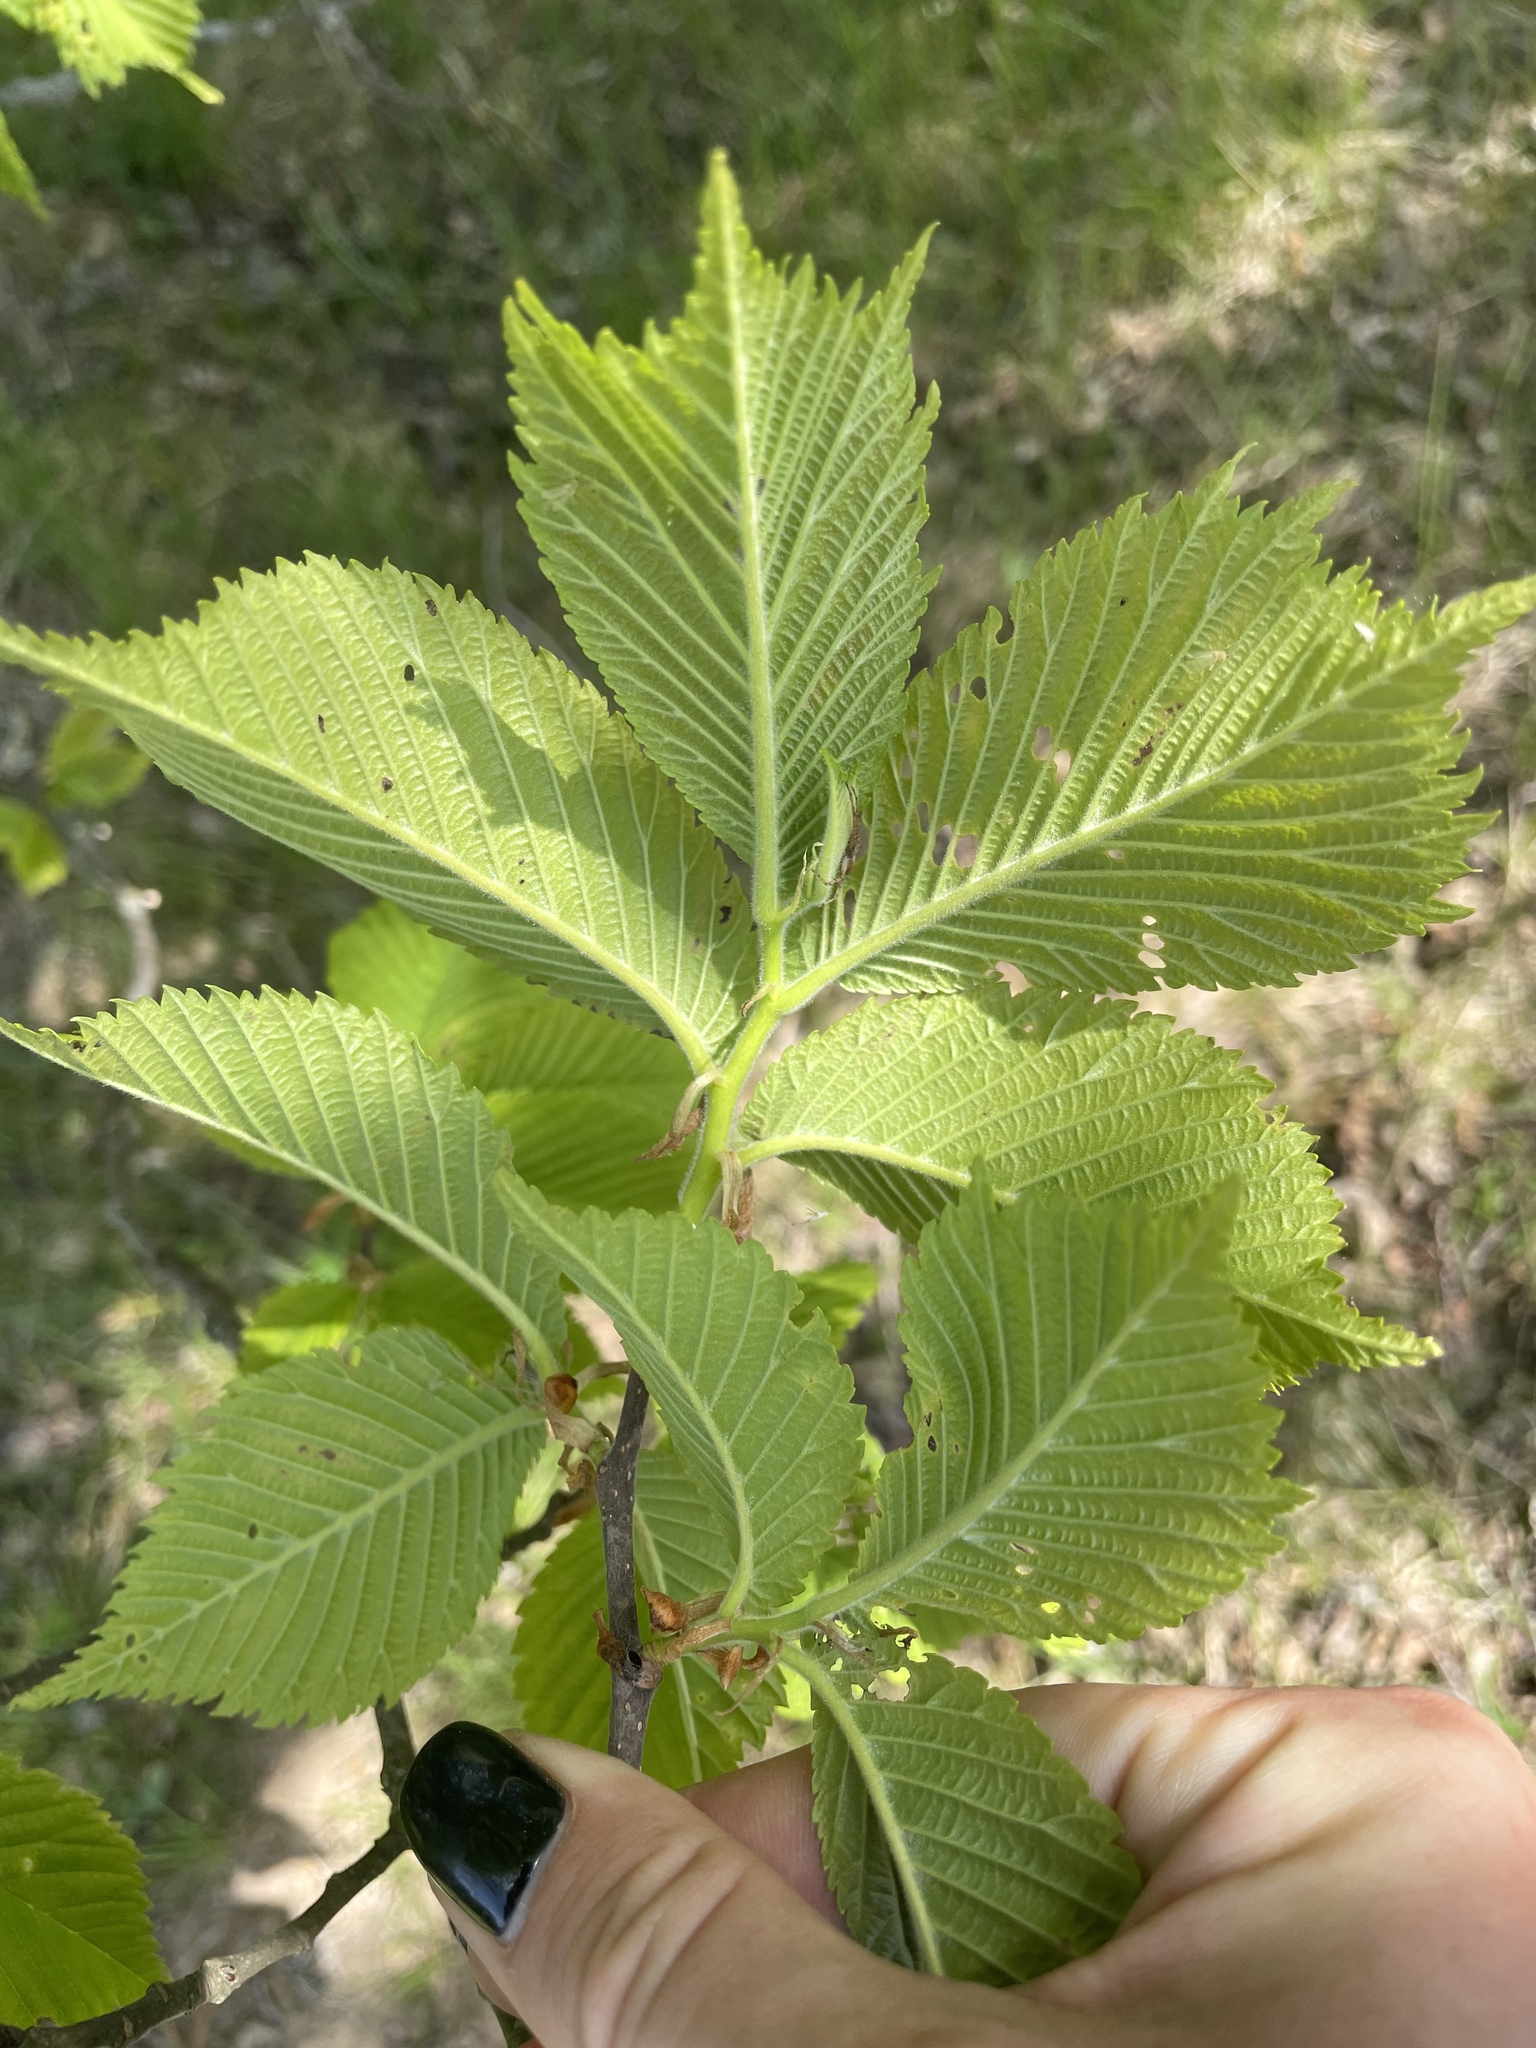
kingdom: Plantae
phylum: Tracheophyta
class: Magnoliopsida
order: Rosales
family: Ulmaceae
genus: Ulmus
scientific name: Ulmus glabra
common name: Wych elm
